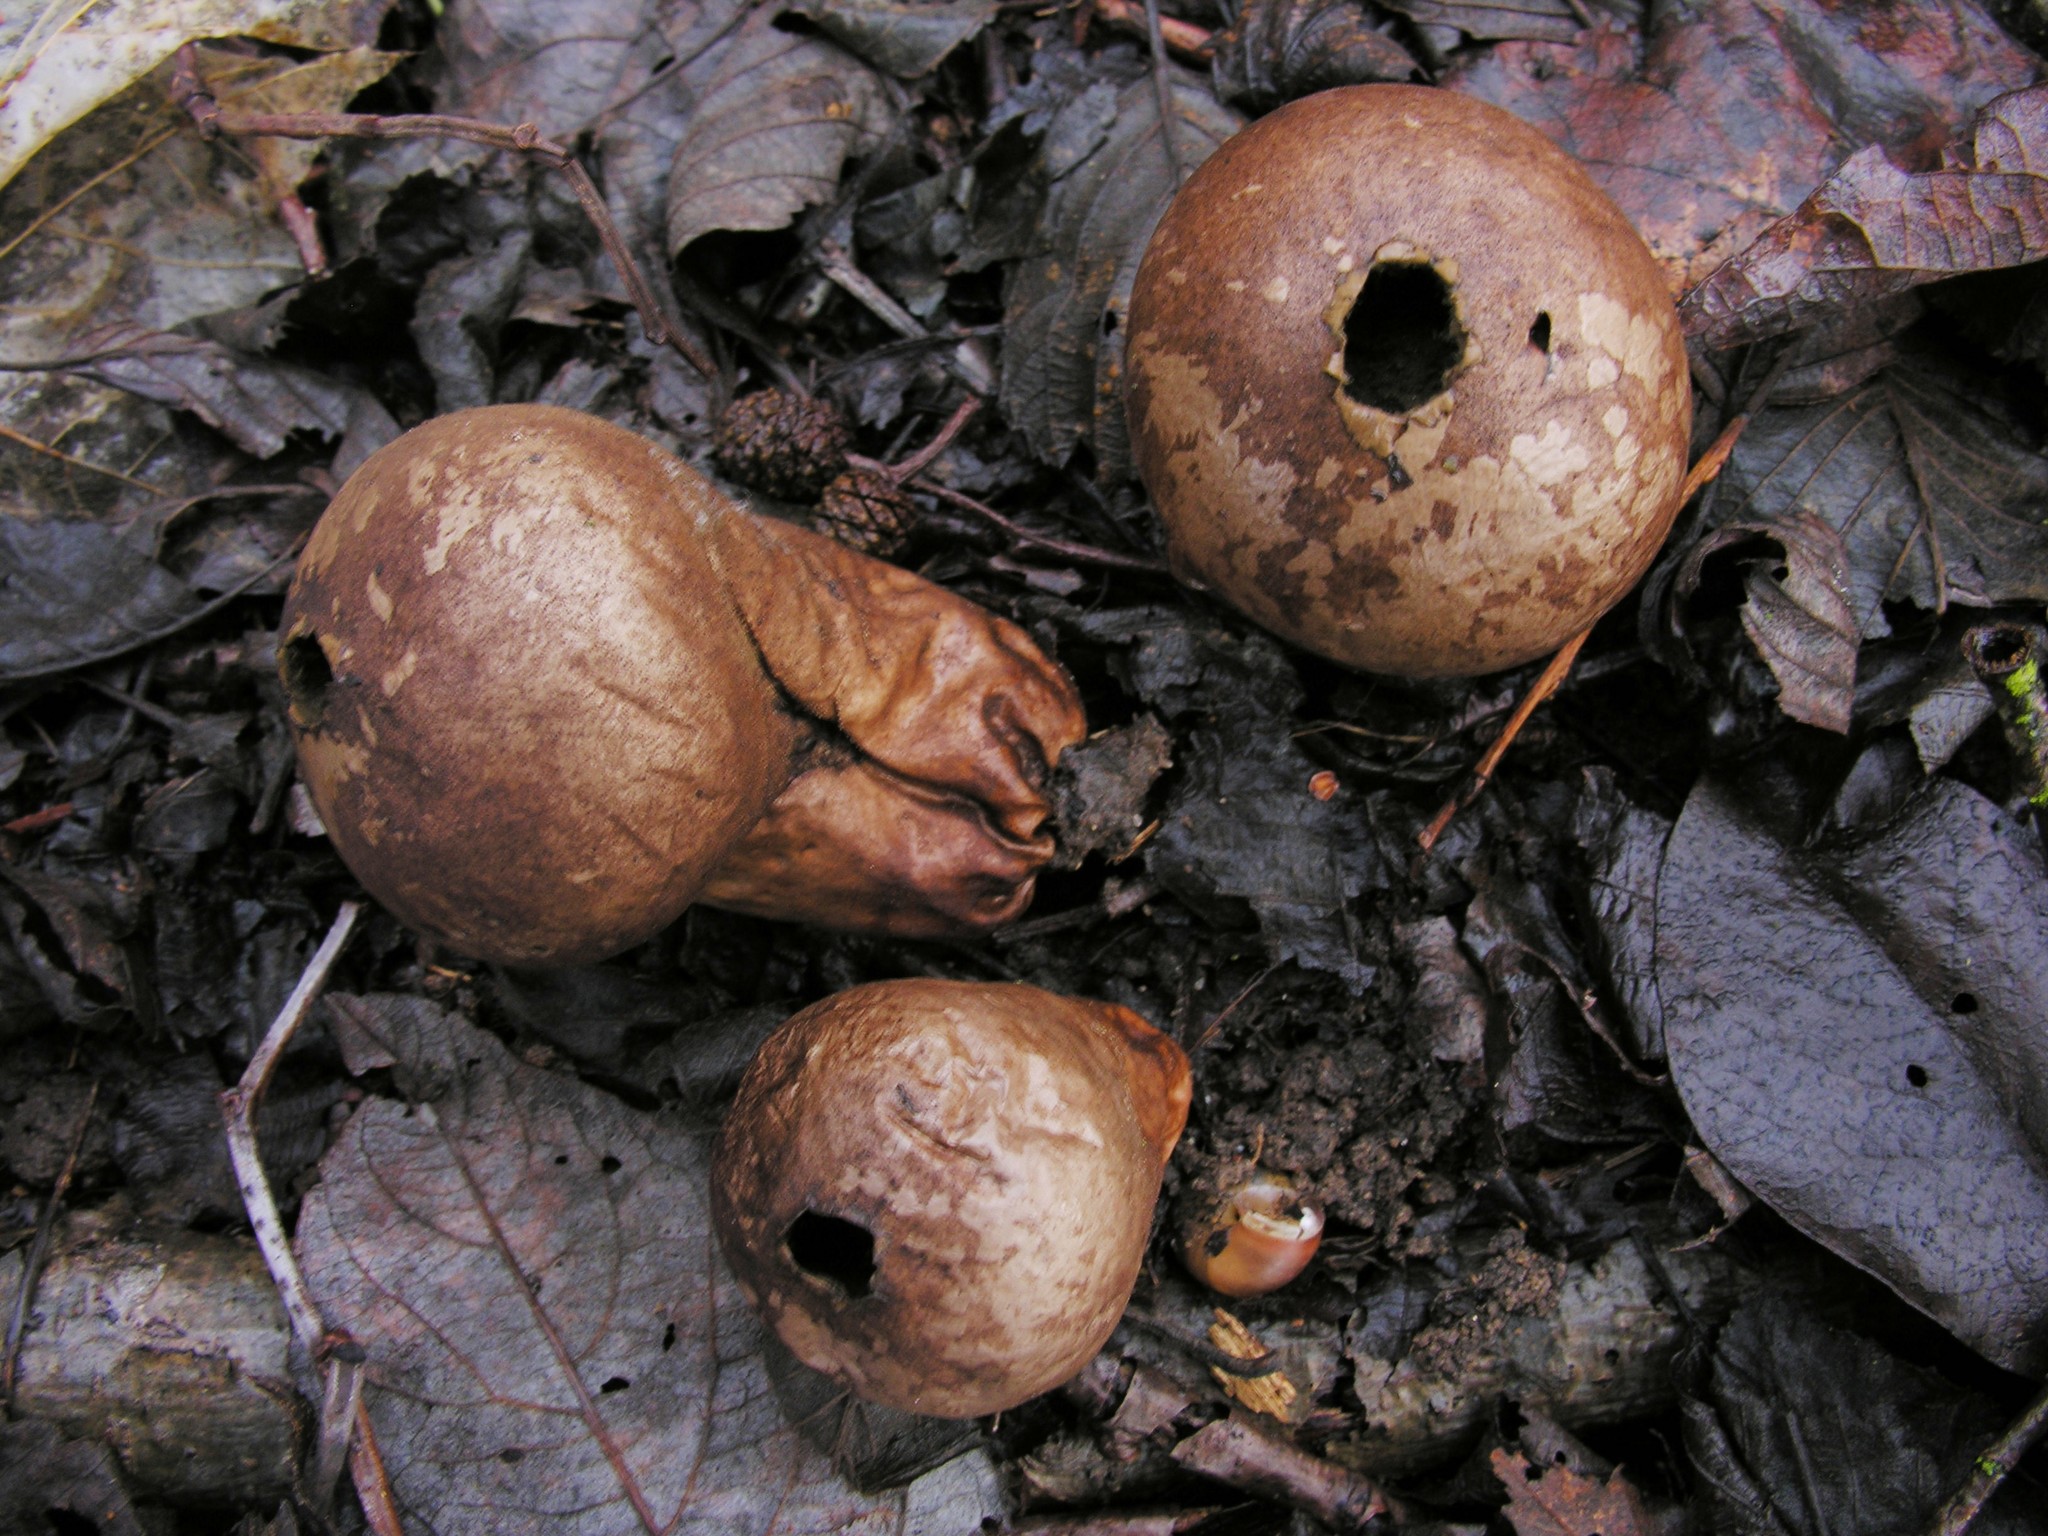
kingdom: Fungi
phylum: Basidiomycota
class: Agaricomycetes
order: Agaricales
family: Lycoperdaceae
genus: Lycoperdon
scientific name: Lycoperdon excipuliforme
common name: Pestle puffball
